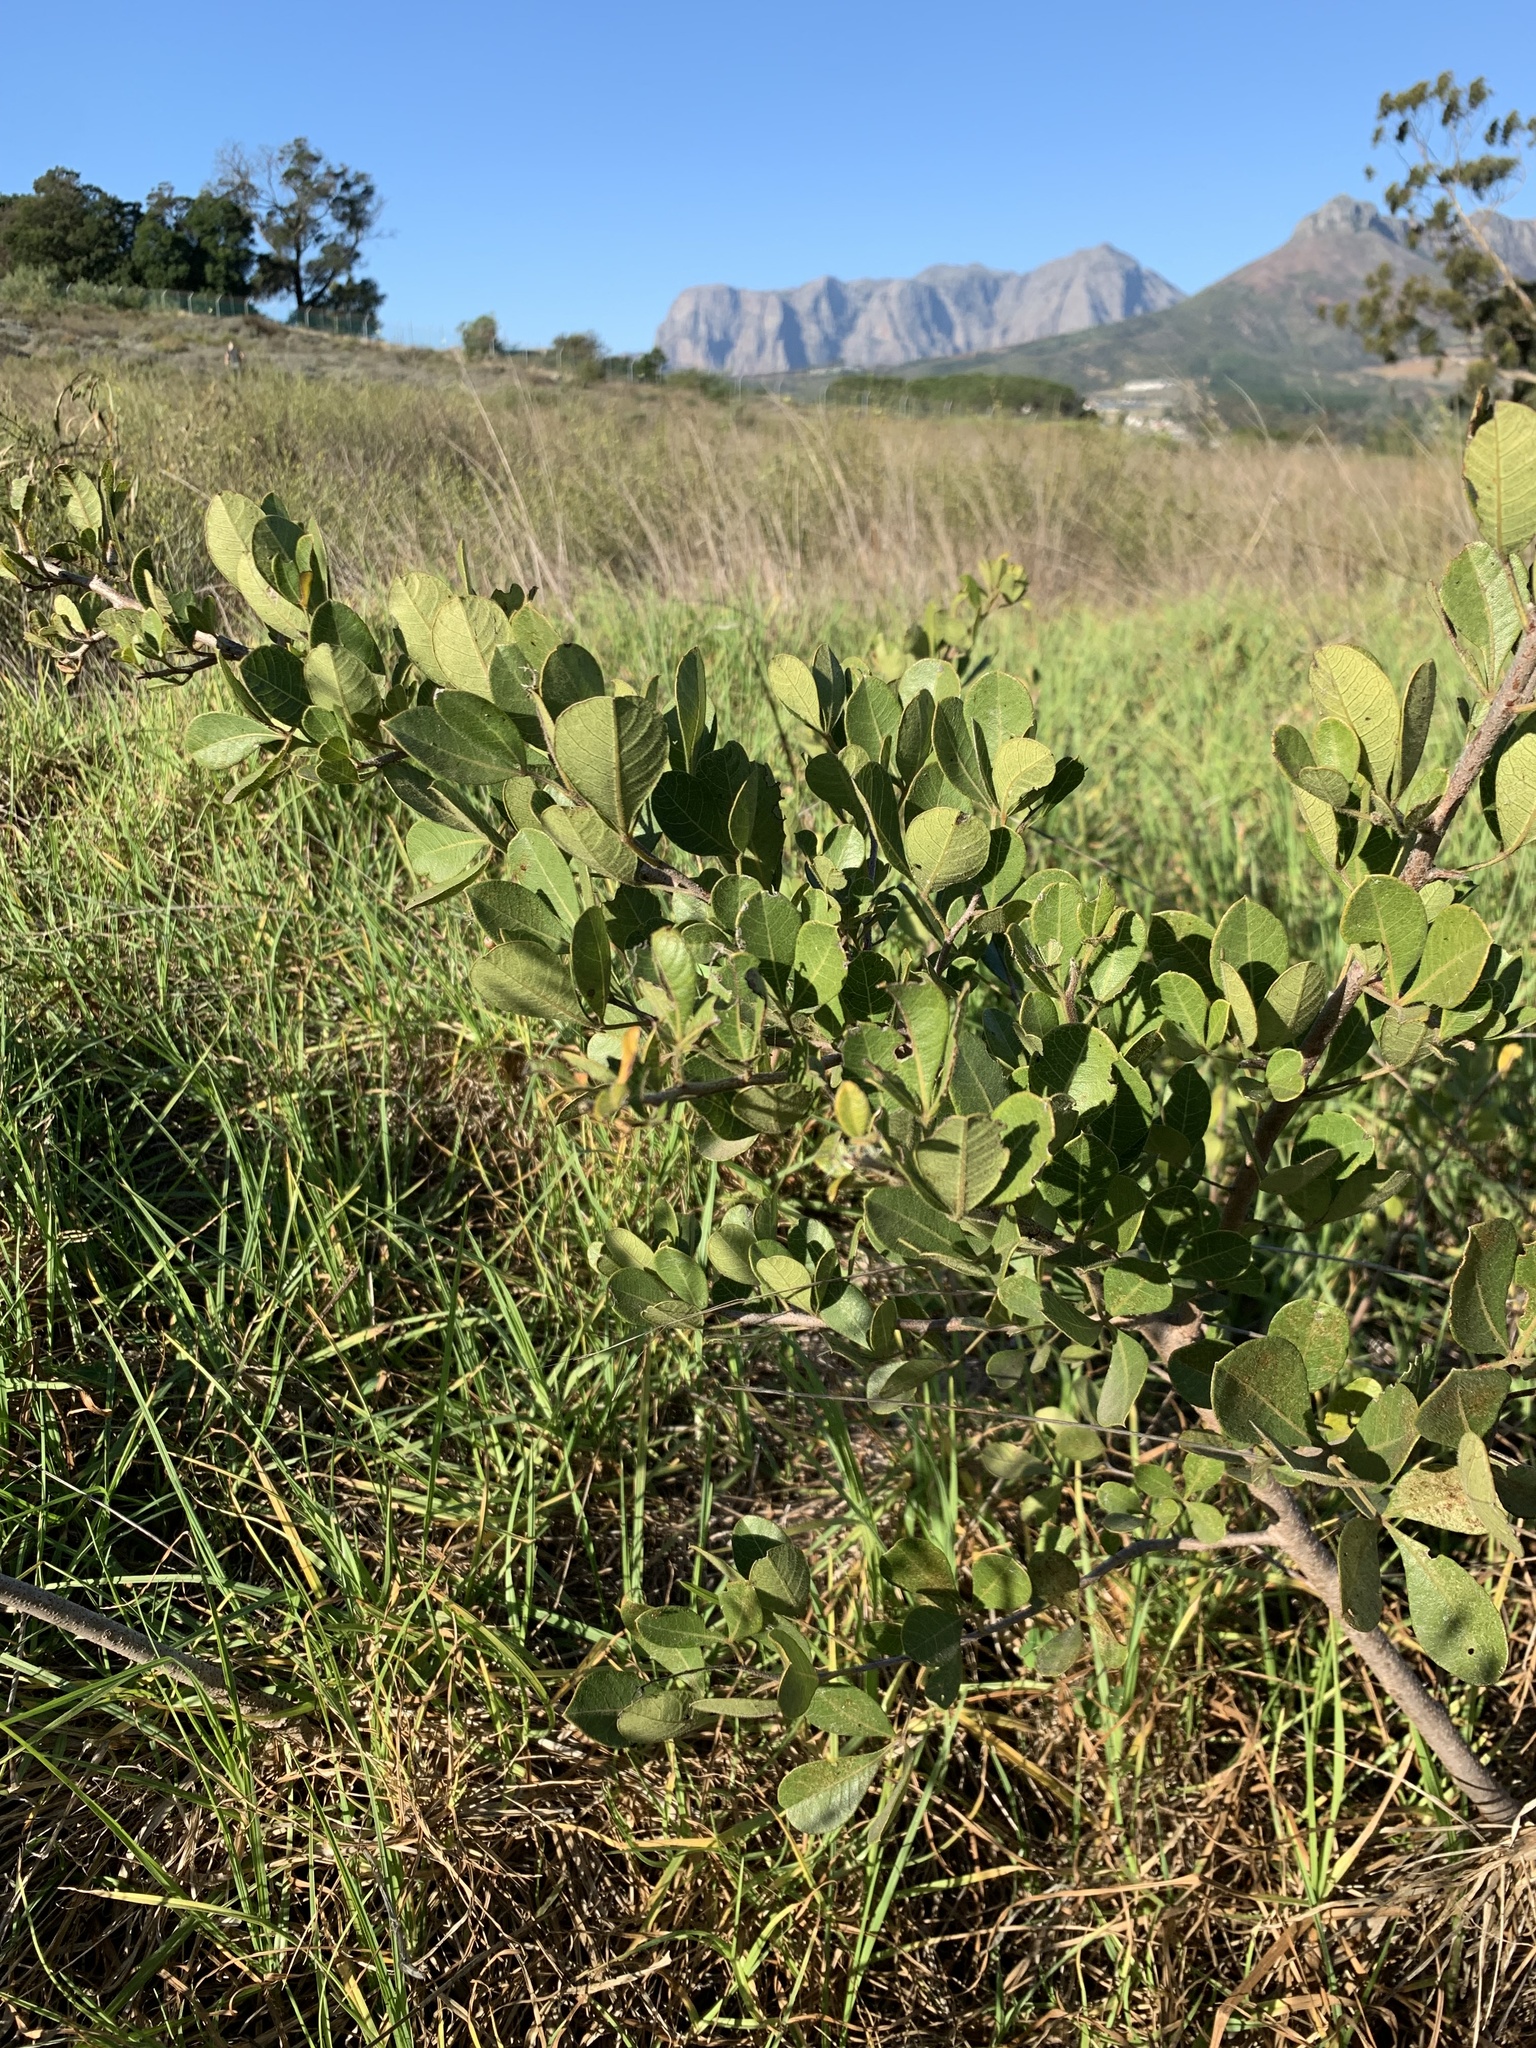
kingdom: Plantae
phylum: Tracheophyta
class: Magnoliopsida
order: Sapindales
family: Anacardiaceae
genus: Searsia
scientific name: Searsia laevigata
